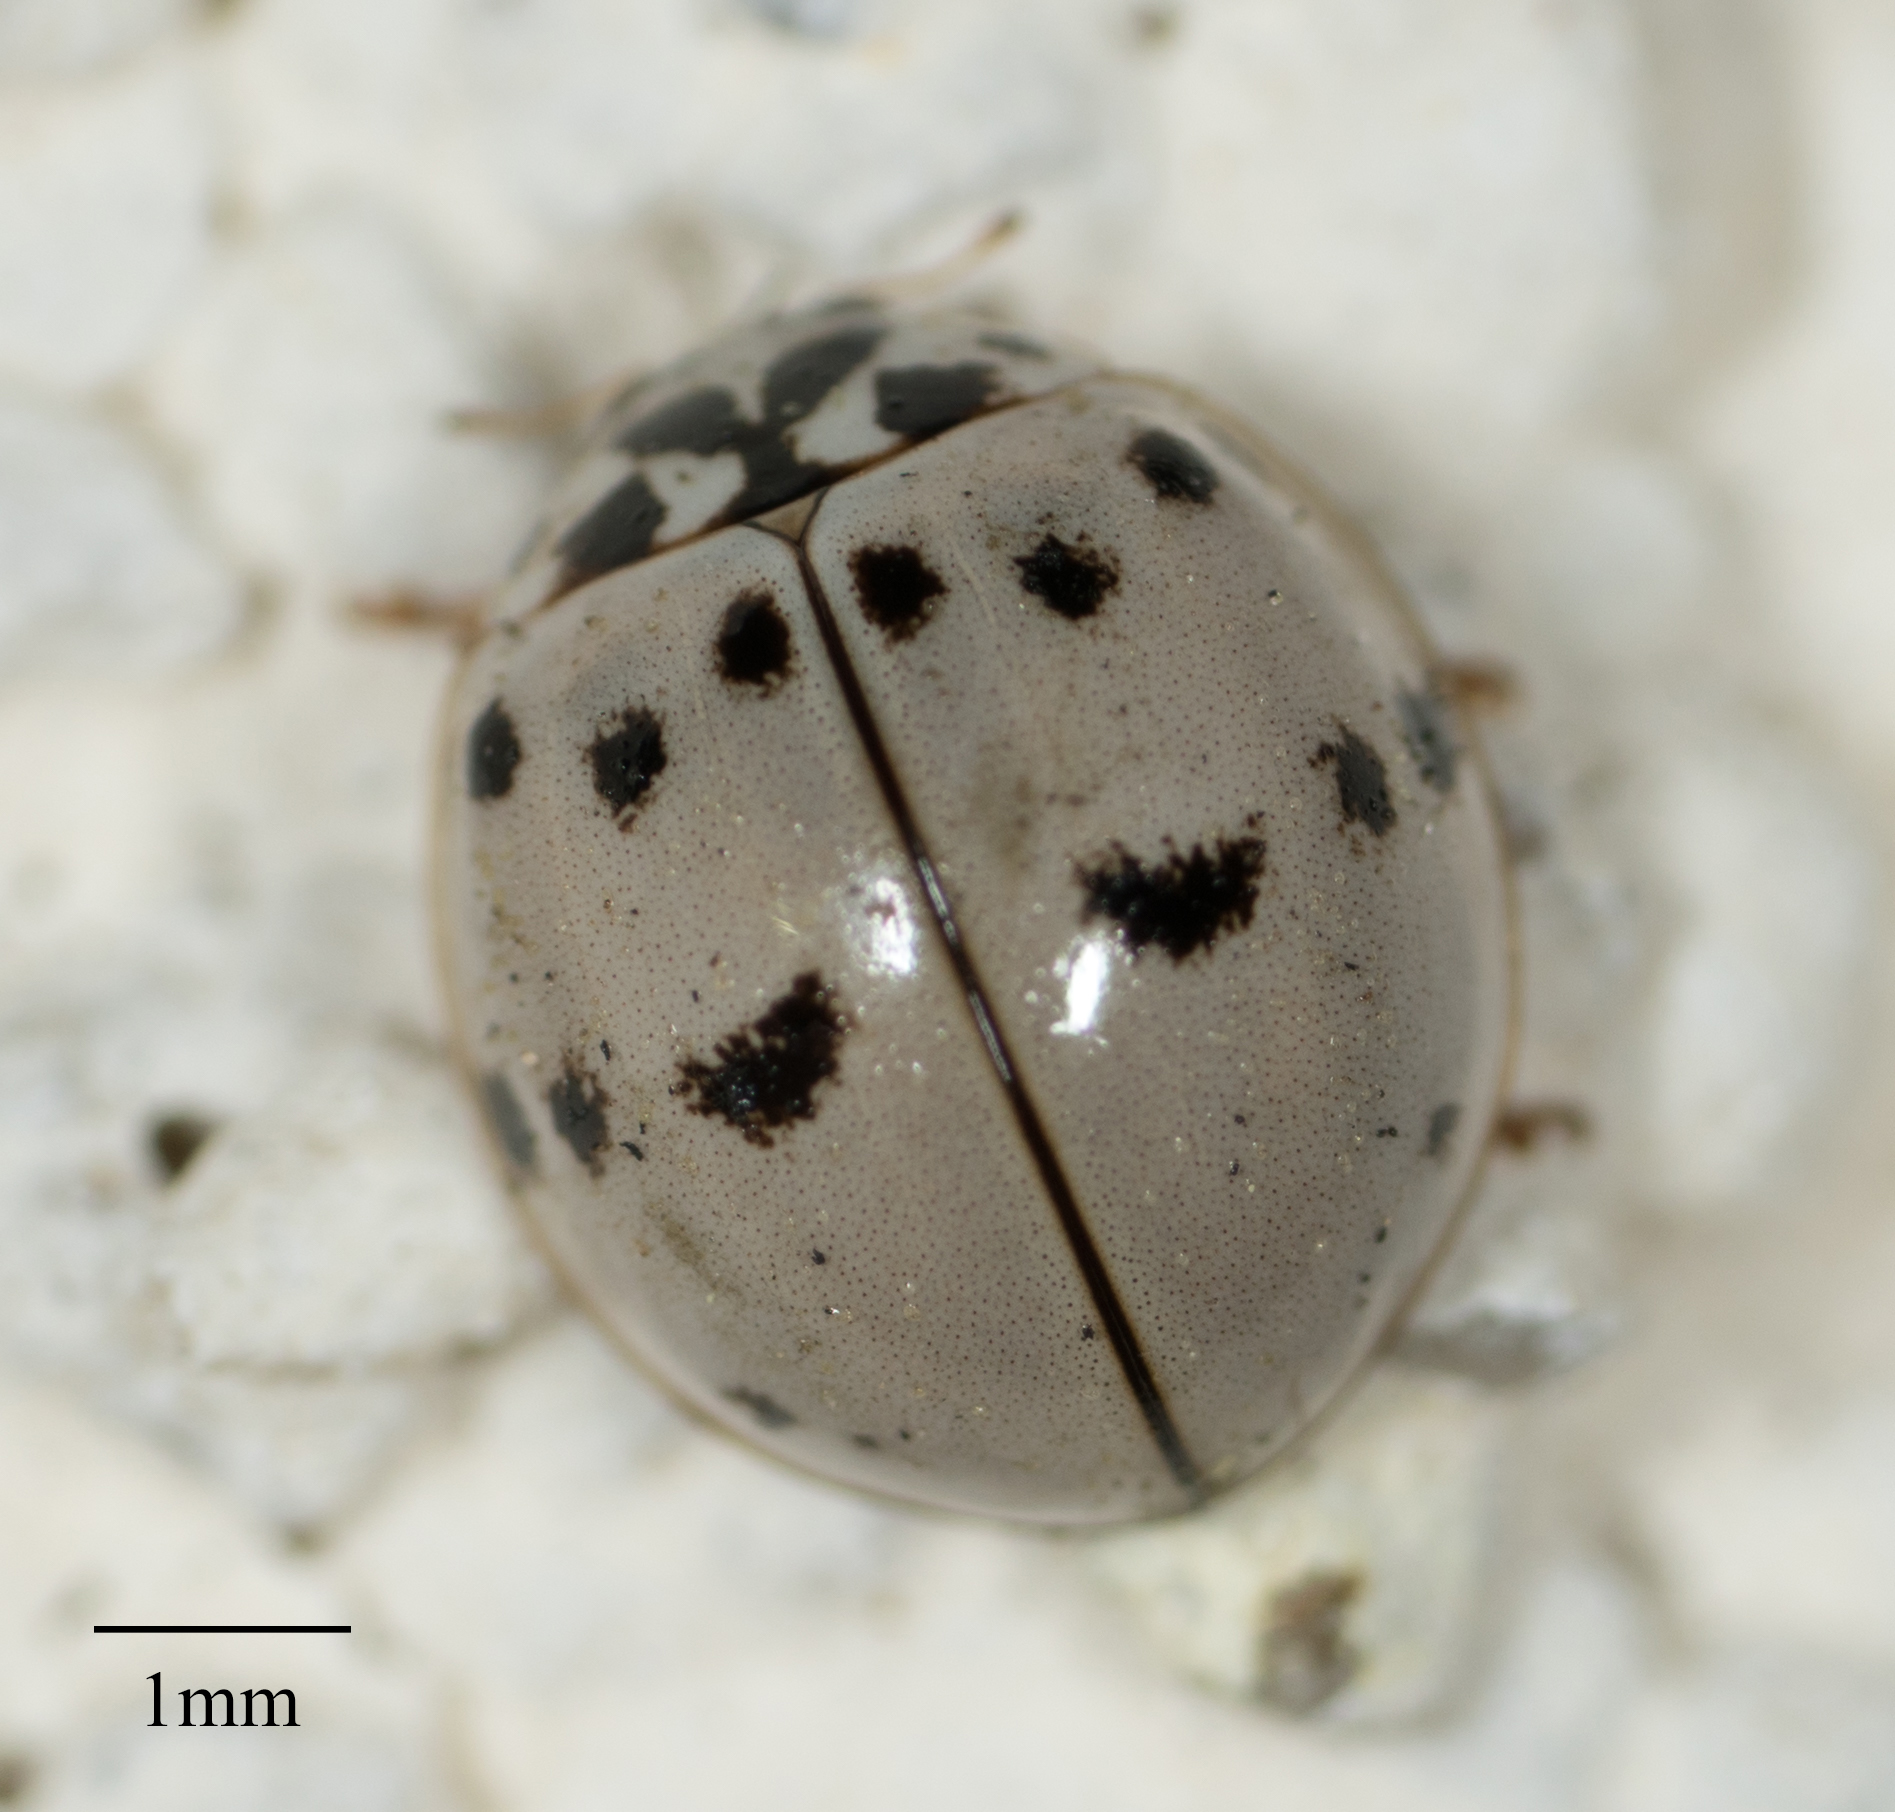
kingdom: Animalia
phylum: Arthropoda
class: Insecta
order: Coleoptera
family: Coccinellidae
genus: Olla
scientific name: Olla v-nigrum
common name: Ashy gray lady beetle
